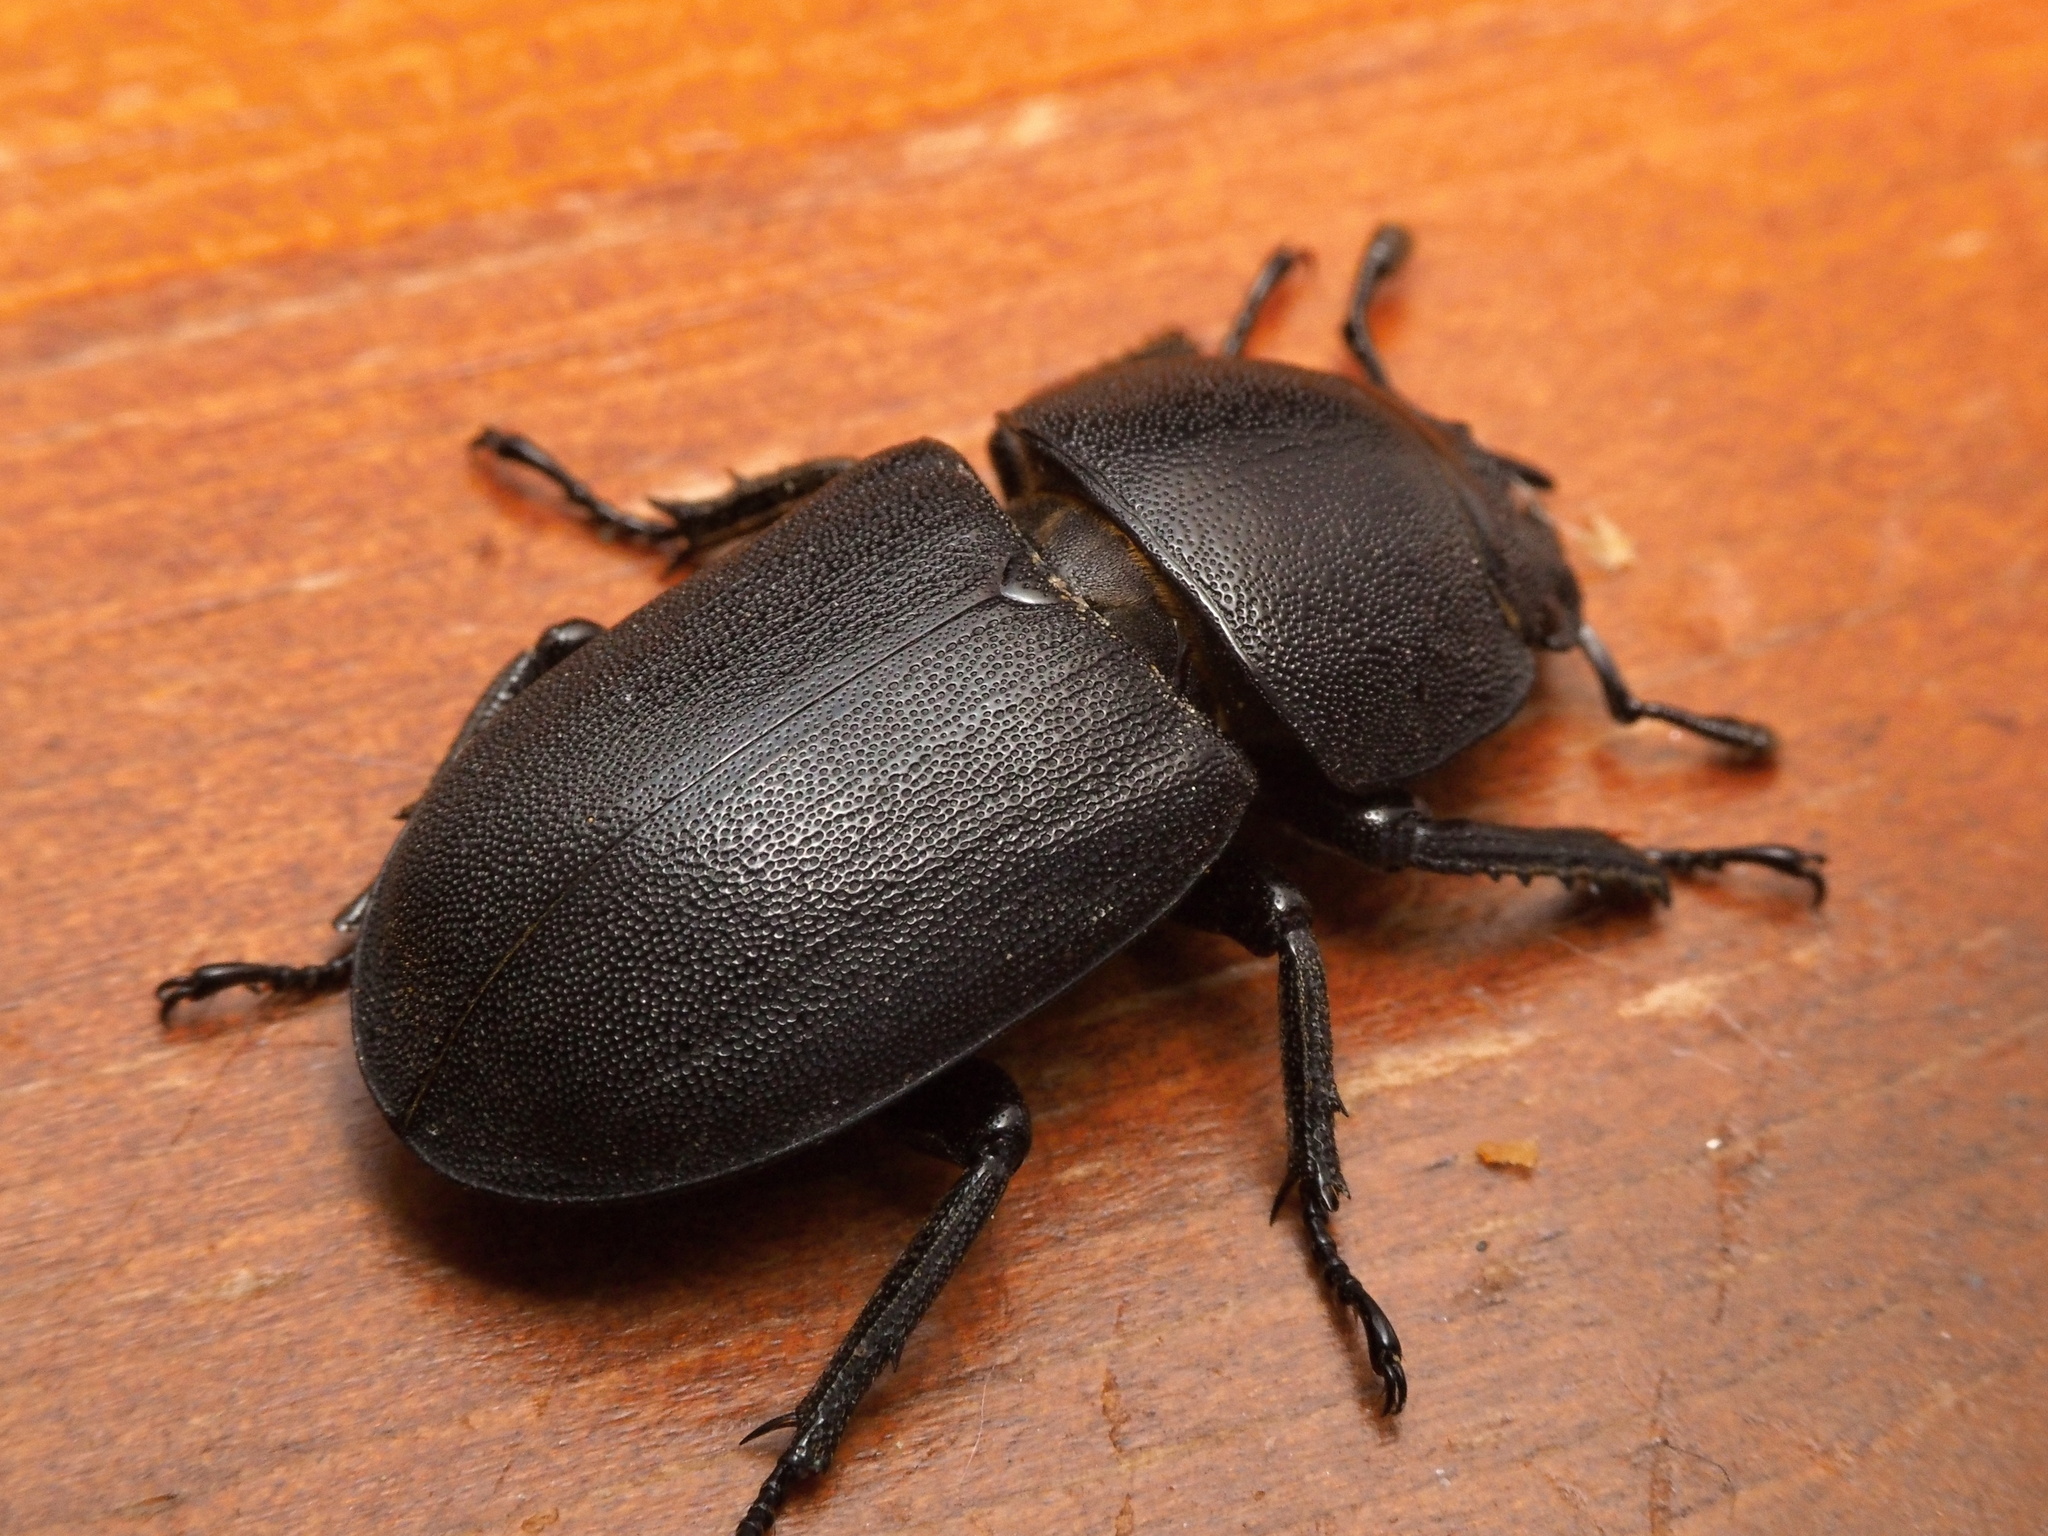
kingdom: Animalia
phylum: Arthropoda
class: Insecta
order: Coleoptera
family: Lucanidae
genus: Dorcus
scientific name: Dorcus parallelipipedus
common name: Lesser stag beetle
